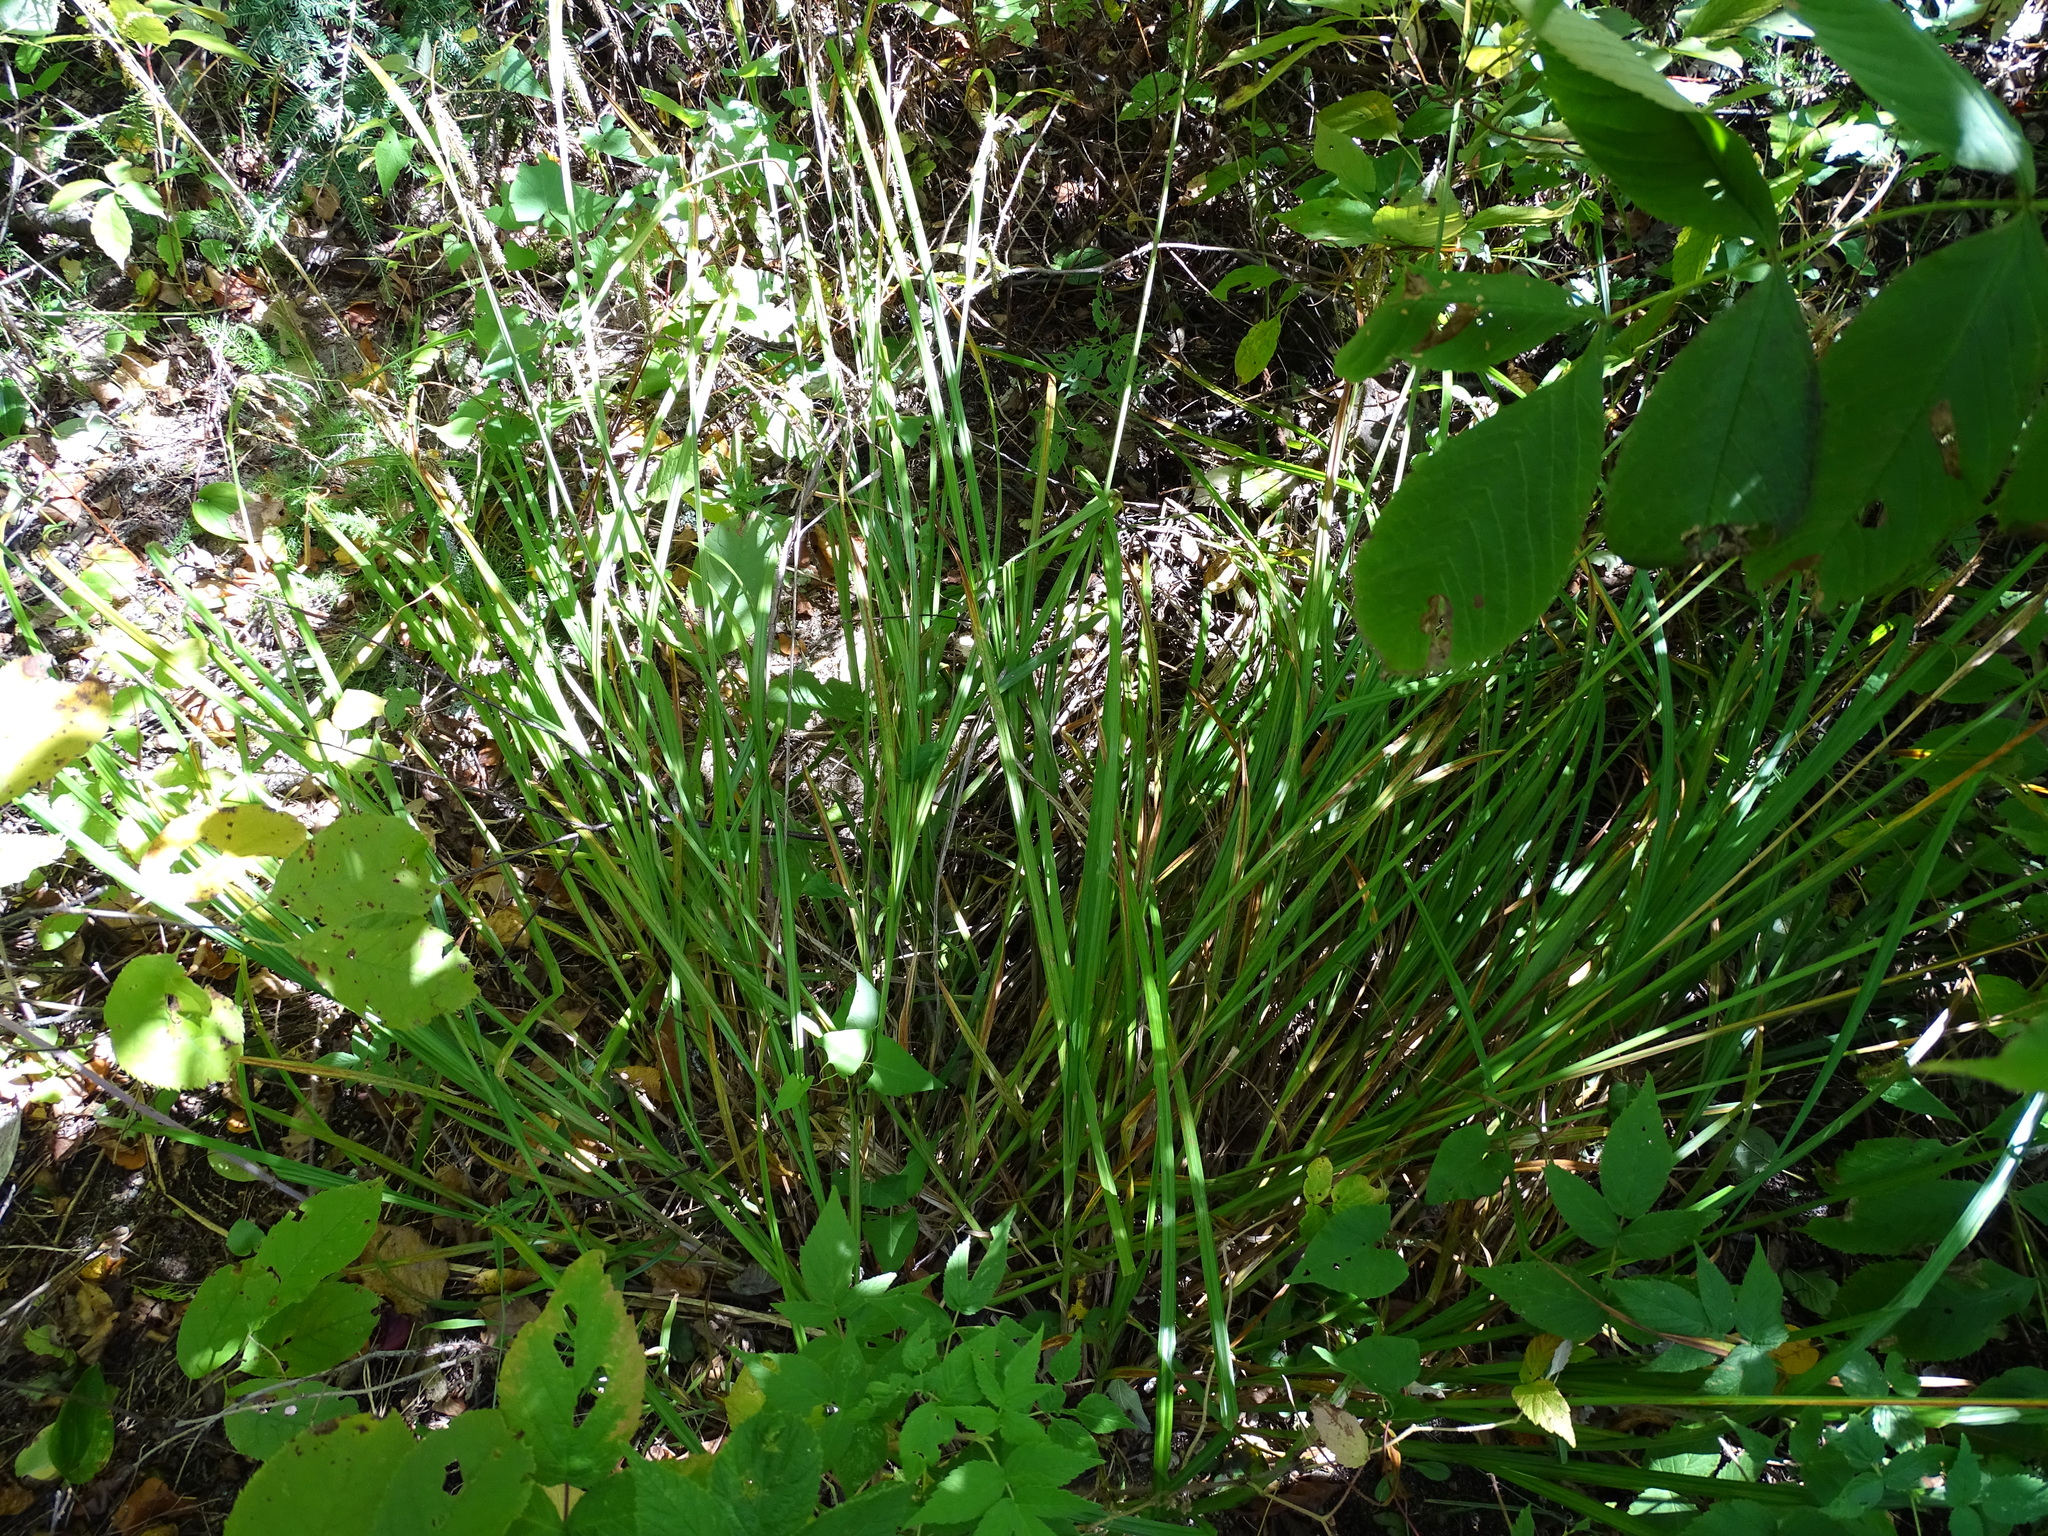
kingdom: Plantae
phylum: Tracheophyta
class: Liliopsida
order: Poales
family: Cyperaceae
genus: Carex
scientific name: Carex crinita
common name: Fringed sedge
